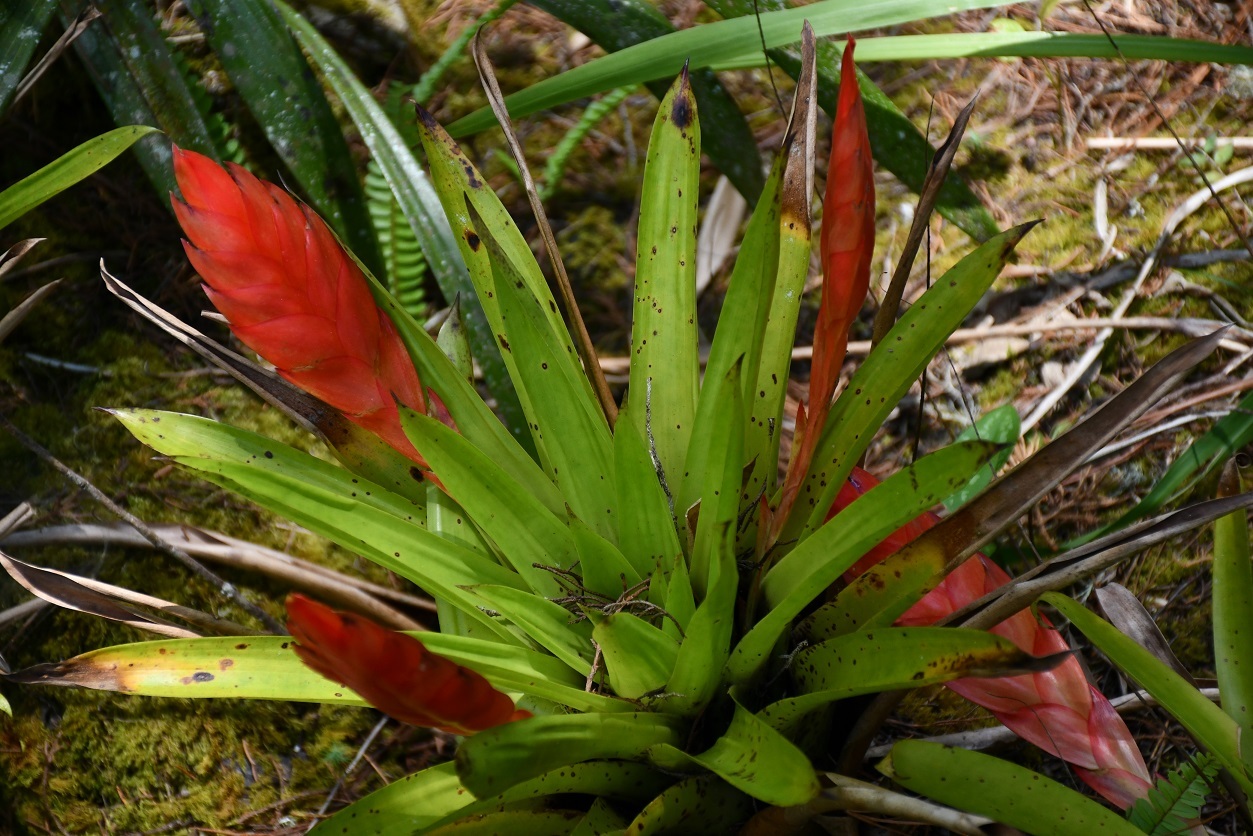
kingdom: Plantae
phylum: Tracheophyta
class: Liliopsida
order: Poales
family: Bromeliaceae
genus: Tillandsia
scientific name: Tillandsia multicaulis
